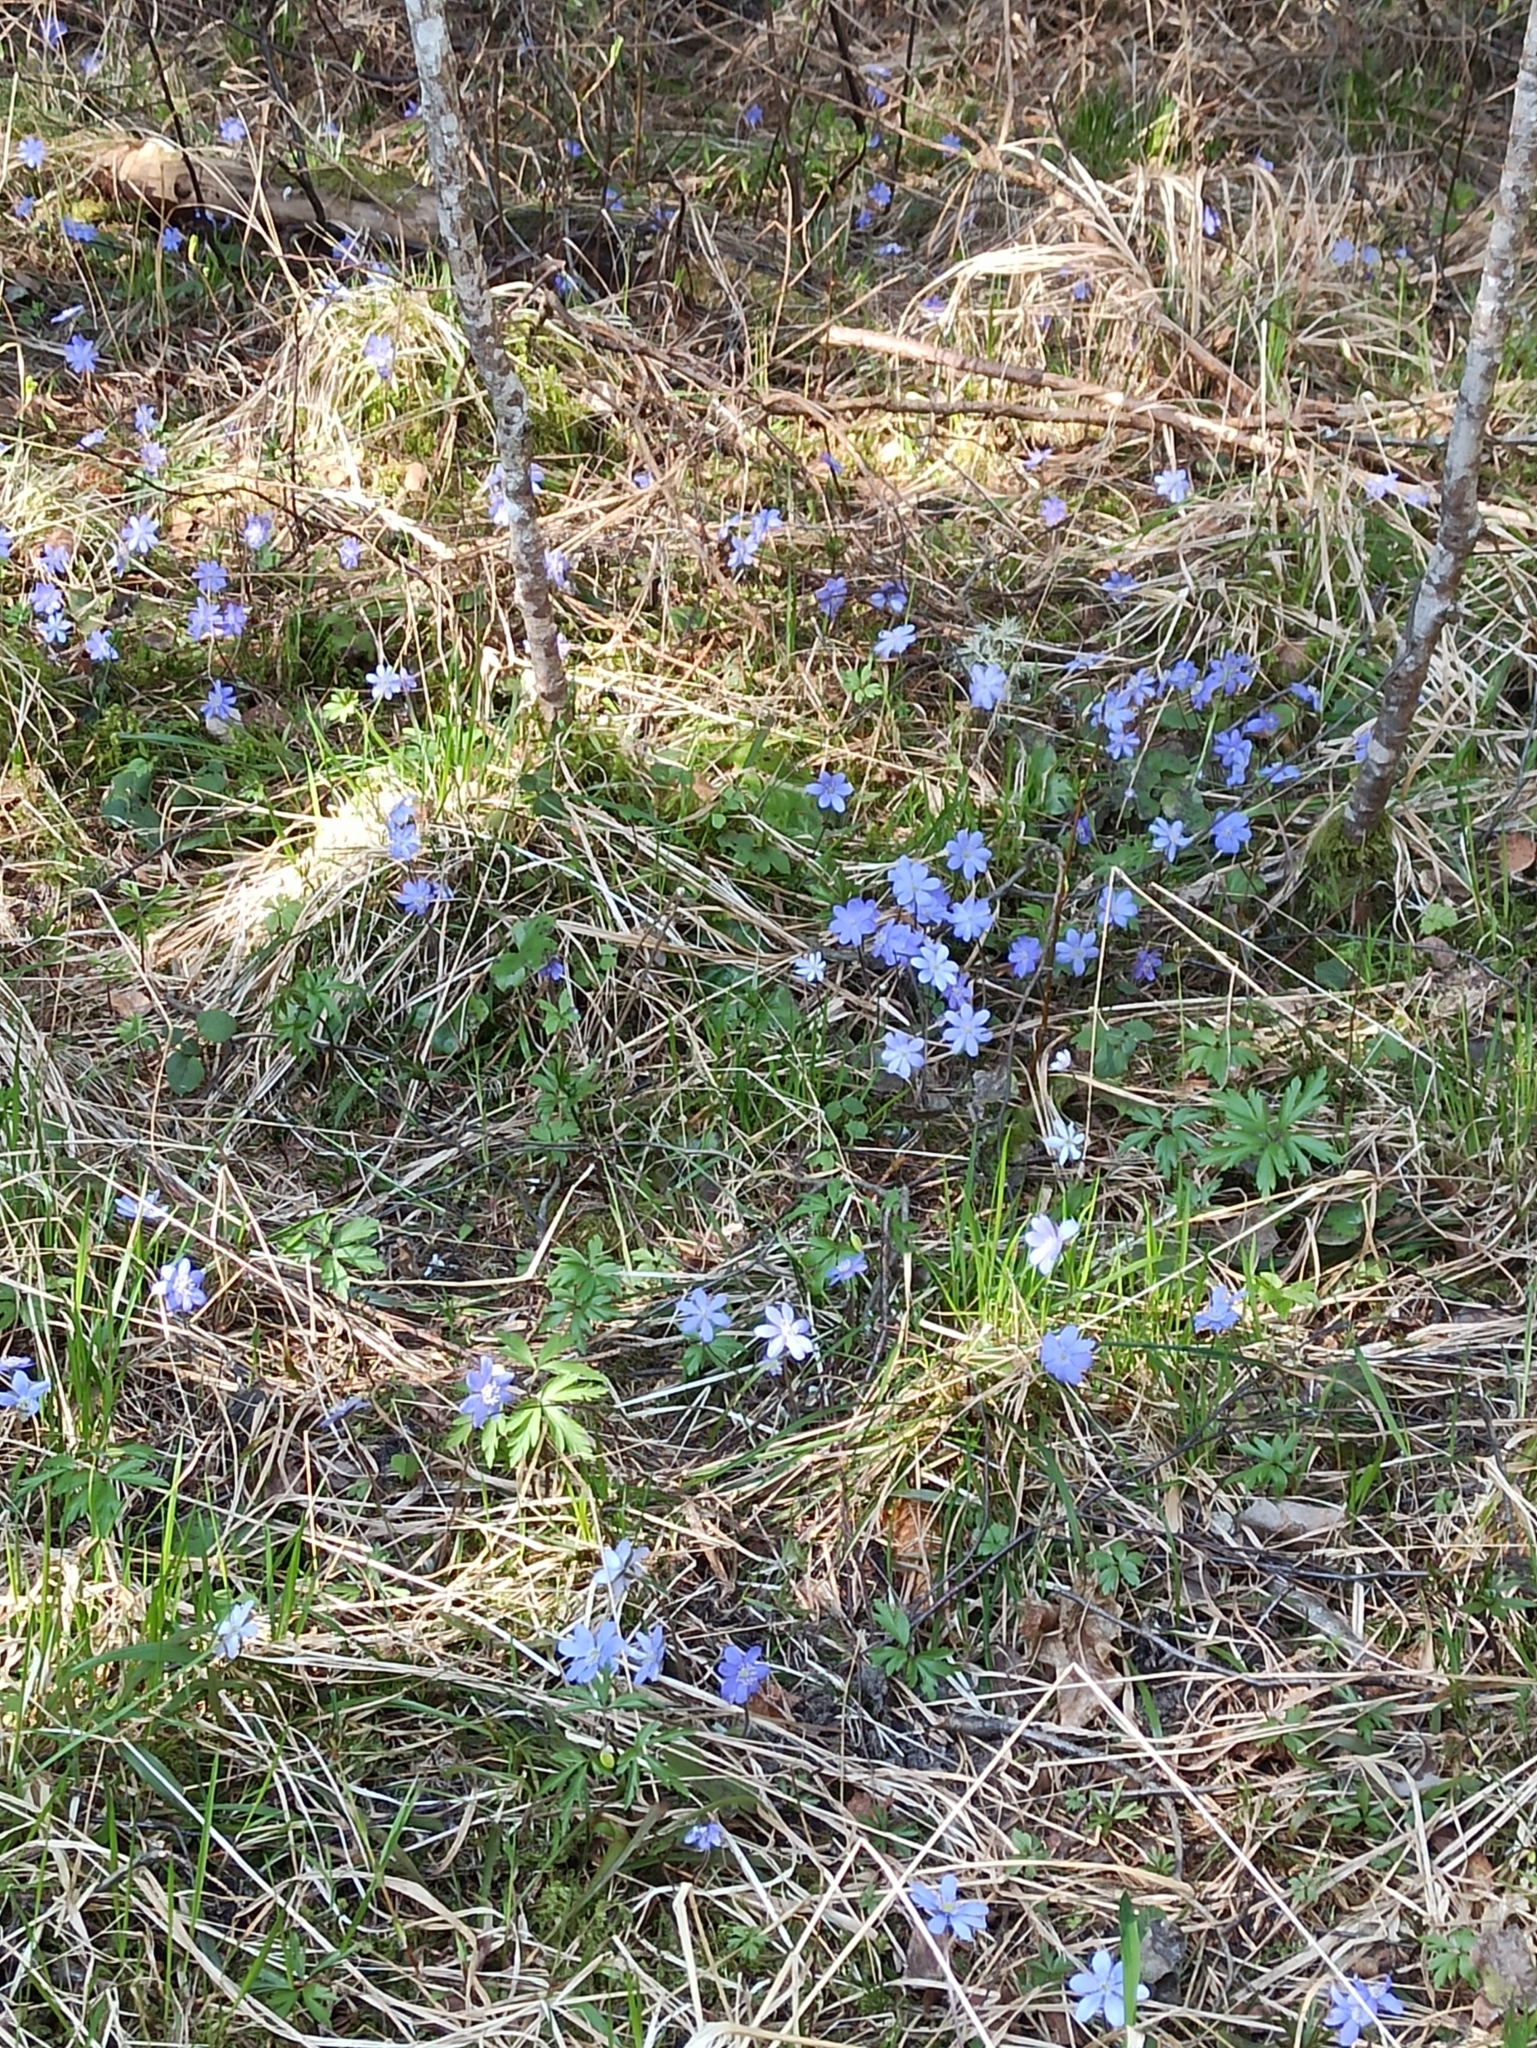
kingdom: Plantae
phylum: Tracheophyta
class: Magnoliopsida
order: Ranunculales
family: Ranunculaceae
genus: Hepatica
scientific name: Hepatica nobilis
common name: Liverleaf
